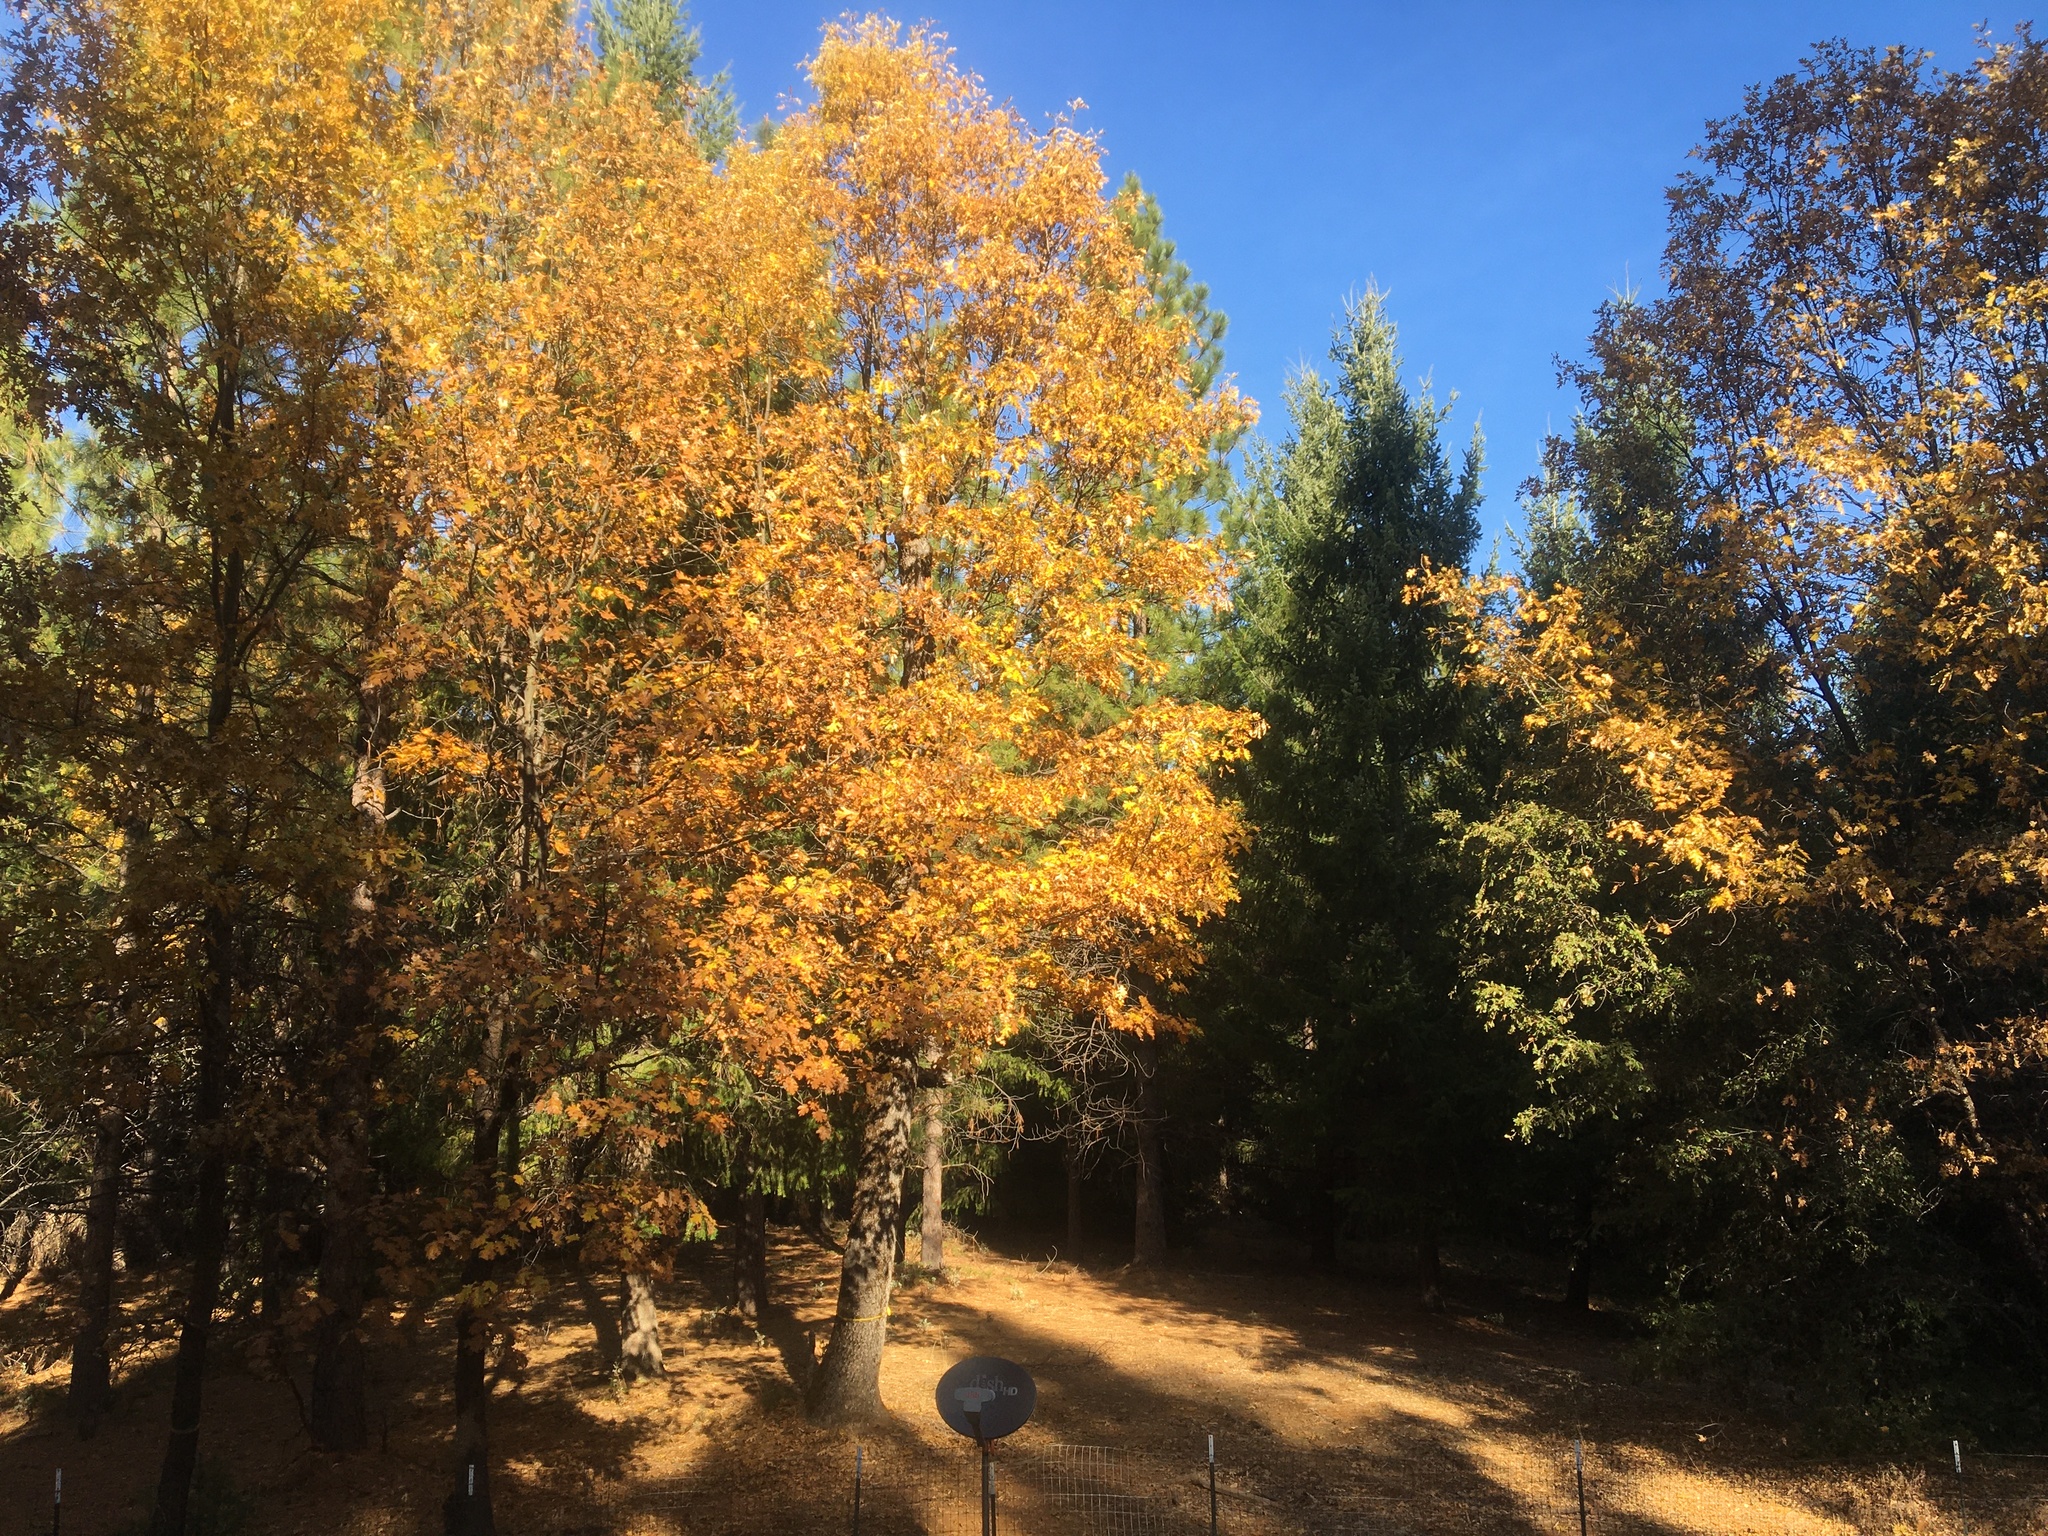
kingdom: Plantae
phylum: Tracheophyta
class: Magnoliopsida
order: Fagales
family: Fagaceae
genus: Quercus
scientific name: Quercus kelloggii
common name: California black oak
